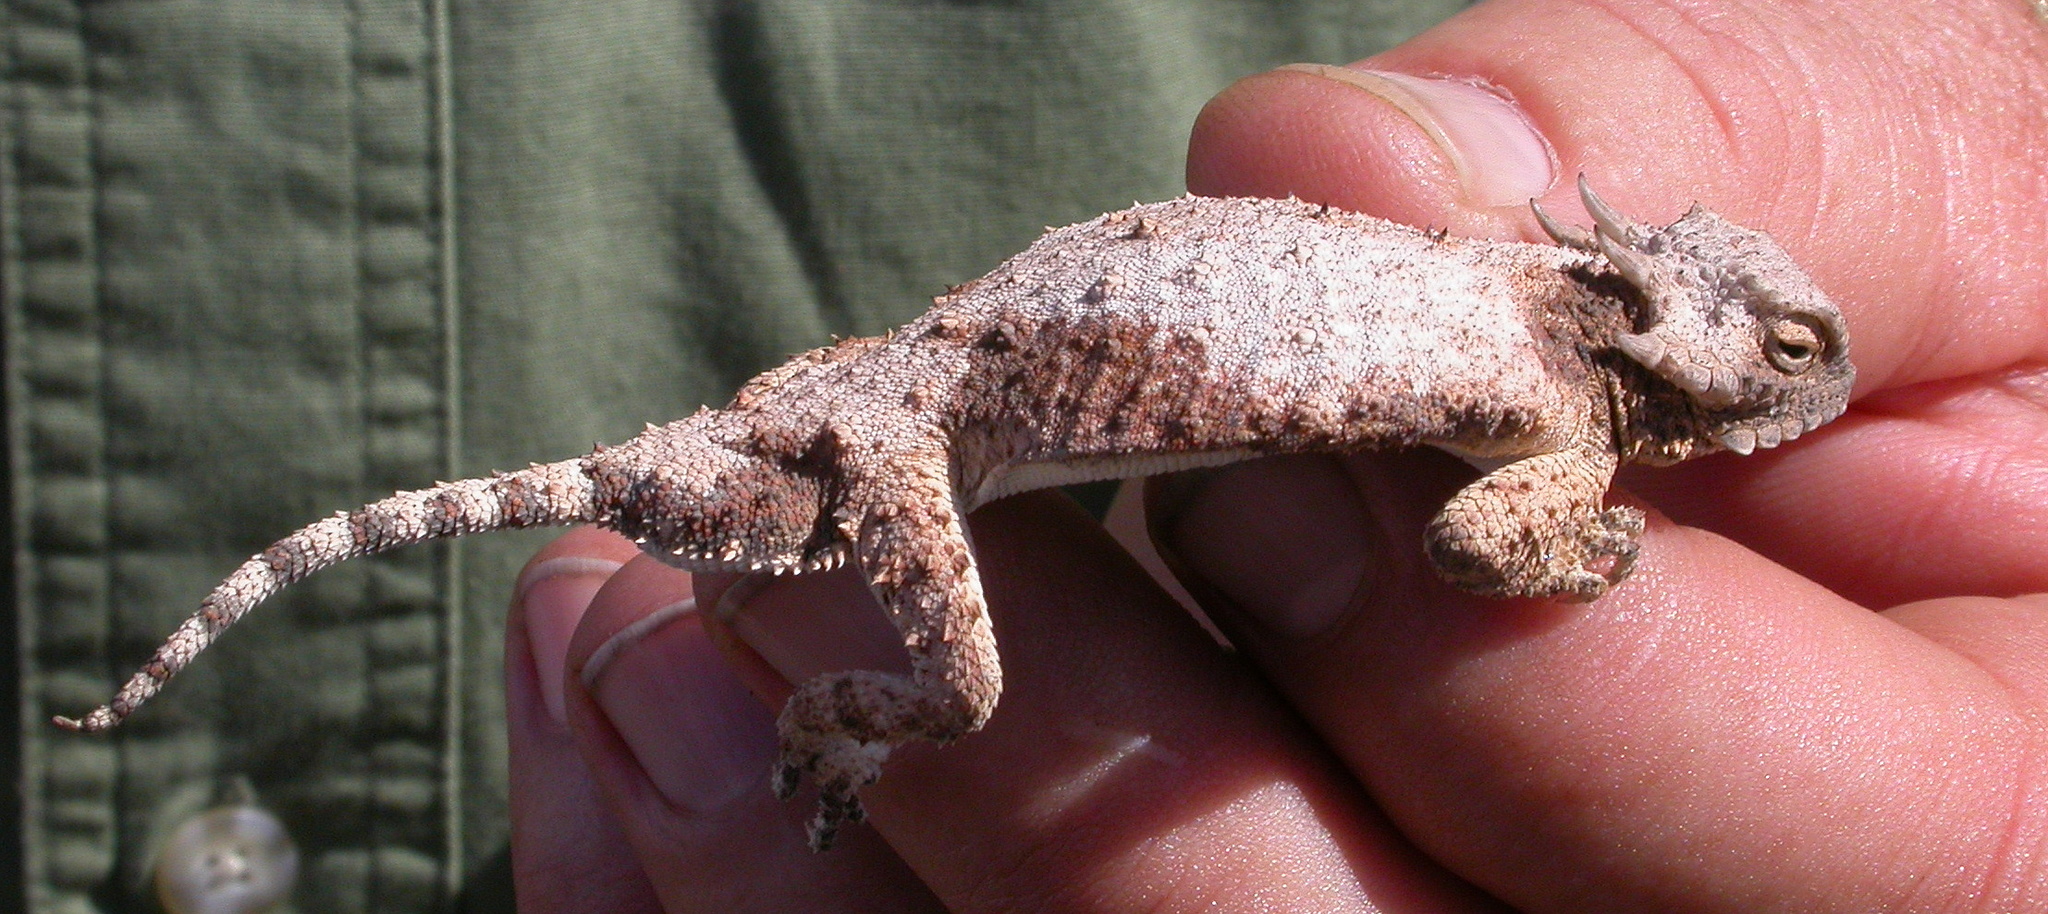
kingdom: Animalia
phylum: Chordata
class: Squamata
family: Phrynosomatidae
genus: Phrynosoma
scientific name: Phrynosoma modestum
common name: Roundtail horned lizard
